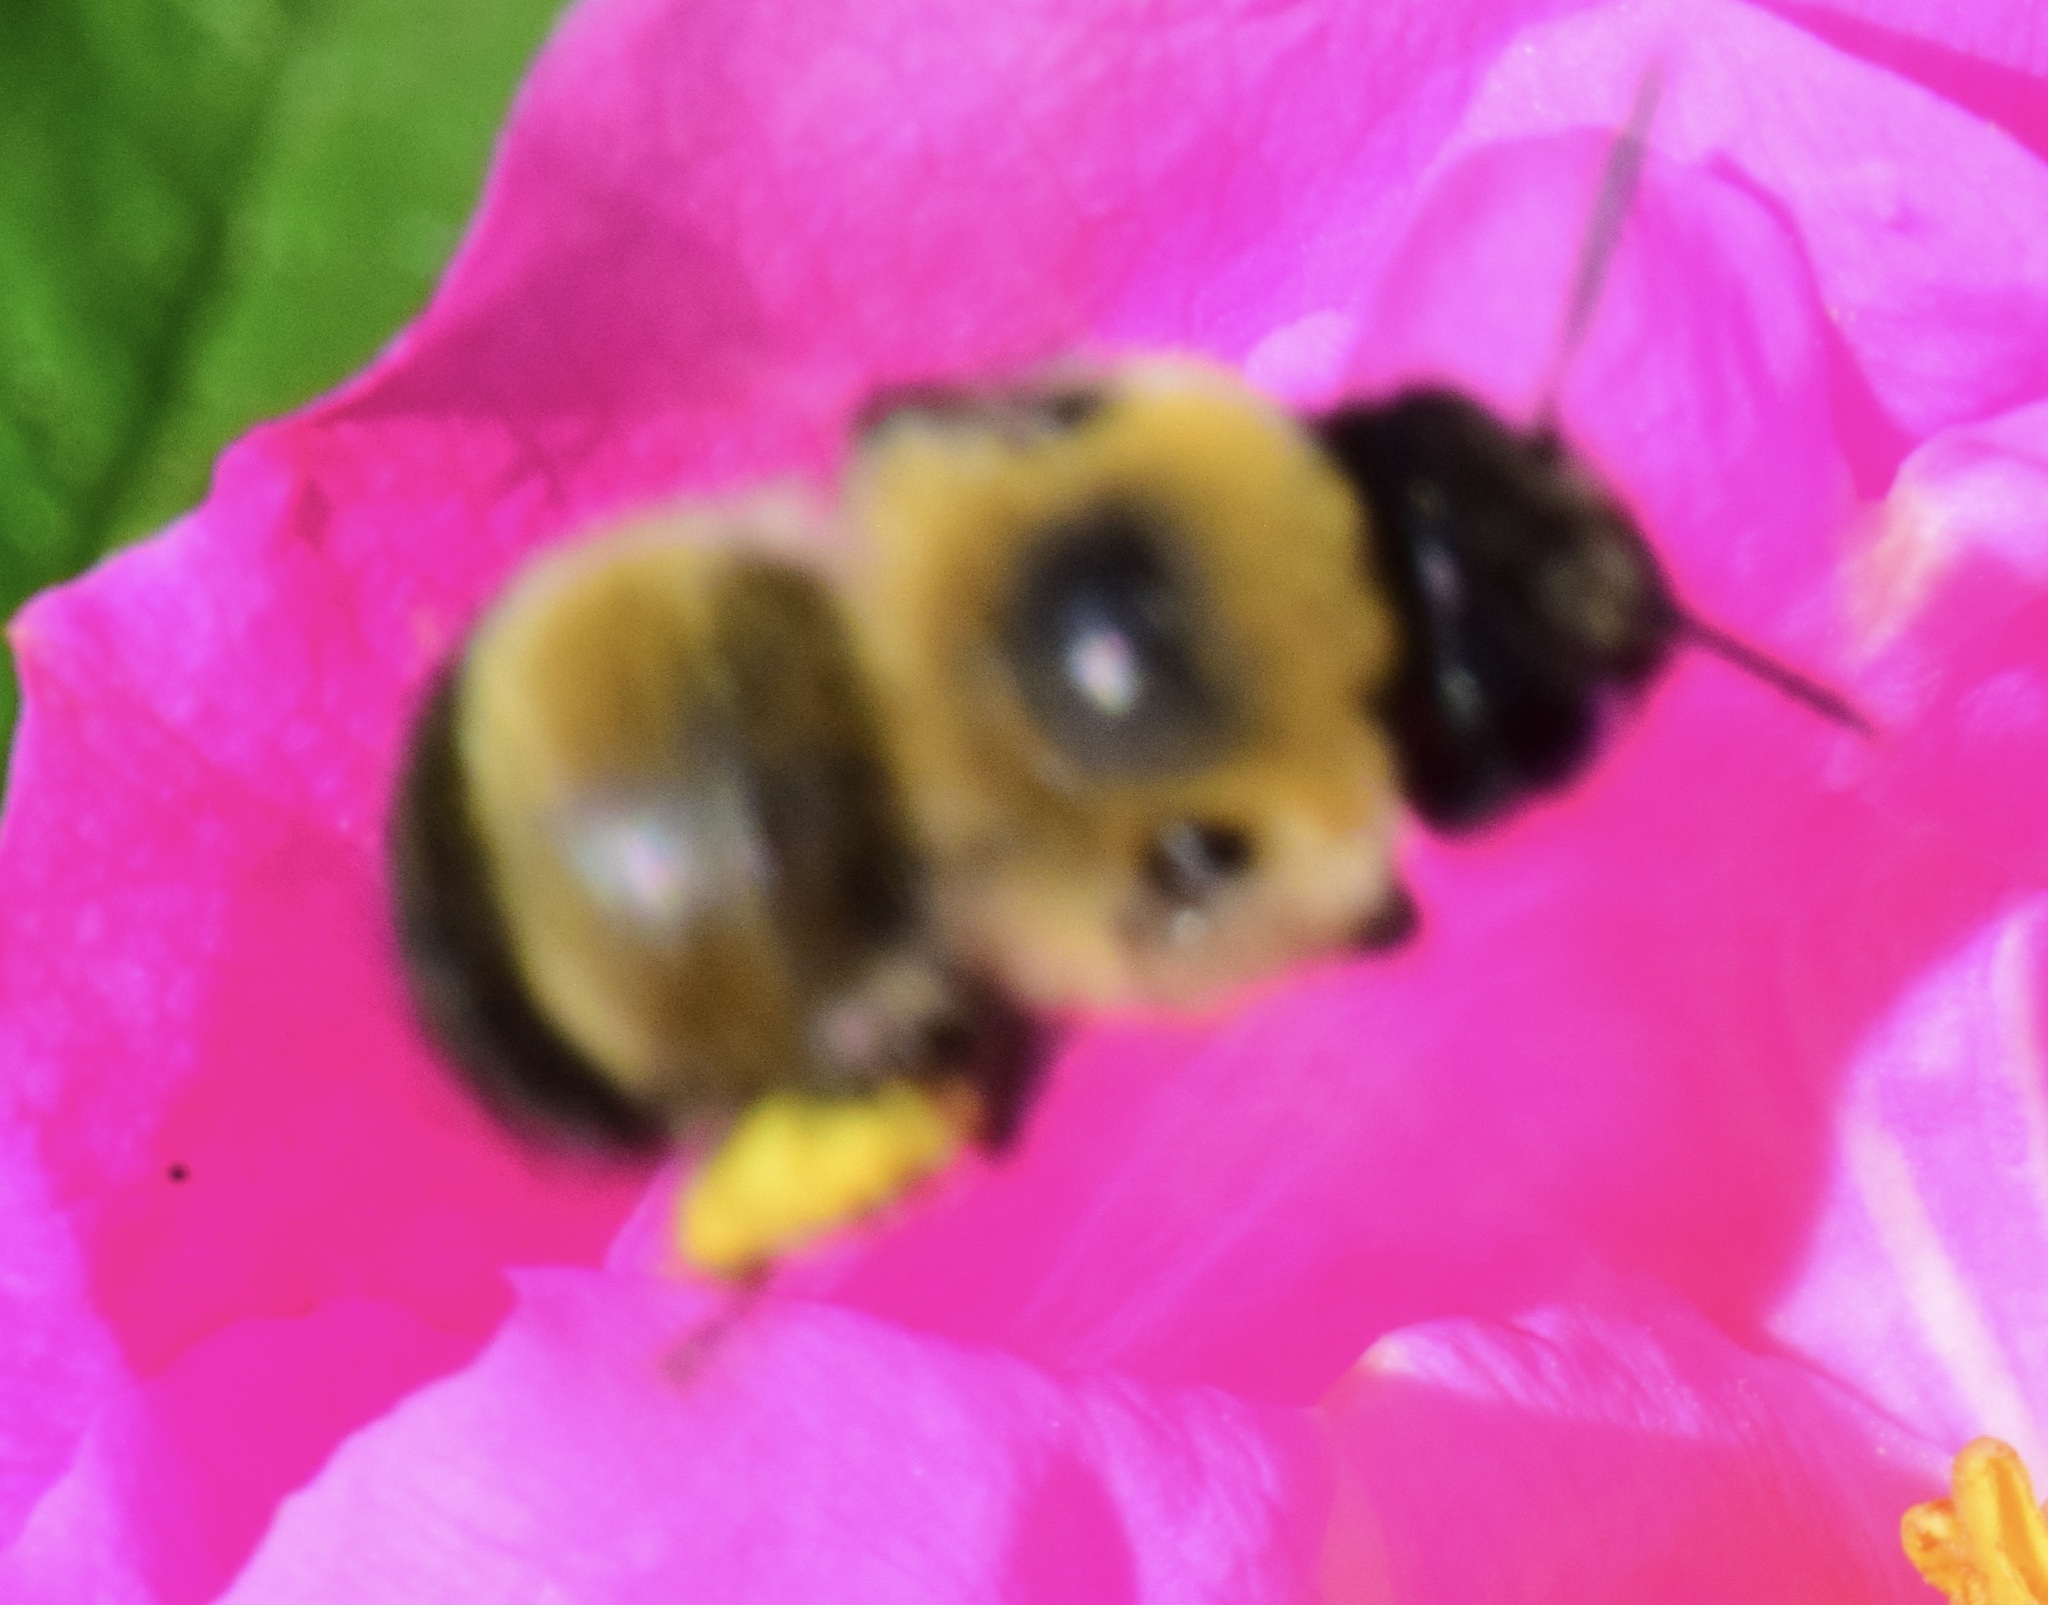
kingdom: Animalia
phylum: Arthropoda
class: Insecta
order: Hymenoptera
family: Apidae
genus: Anthophora
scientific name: Anthophora bomboides
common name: Bumble-bee-mimic digger bee
